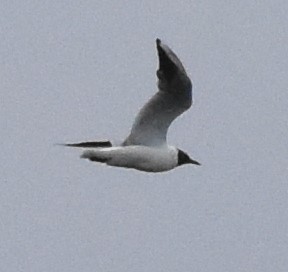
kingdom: Animalia
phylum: Chordata
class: Aves
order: Charadriiformes
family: Laridae
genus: Chroicocephalus
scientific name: Chroicocephalus ridibundus
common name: Black-headed gull
